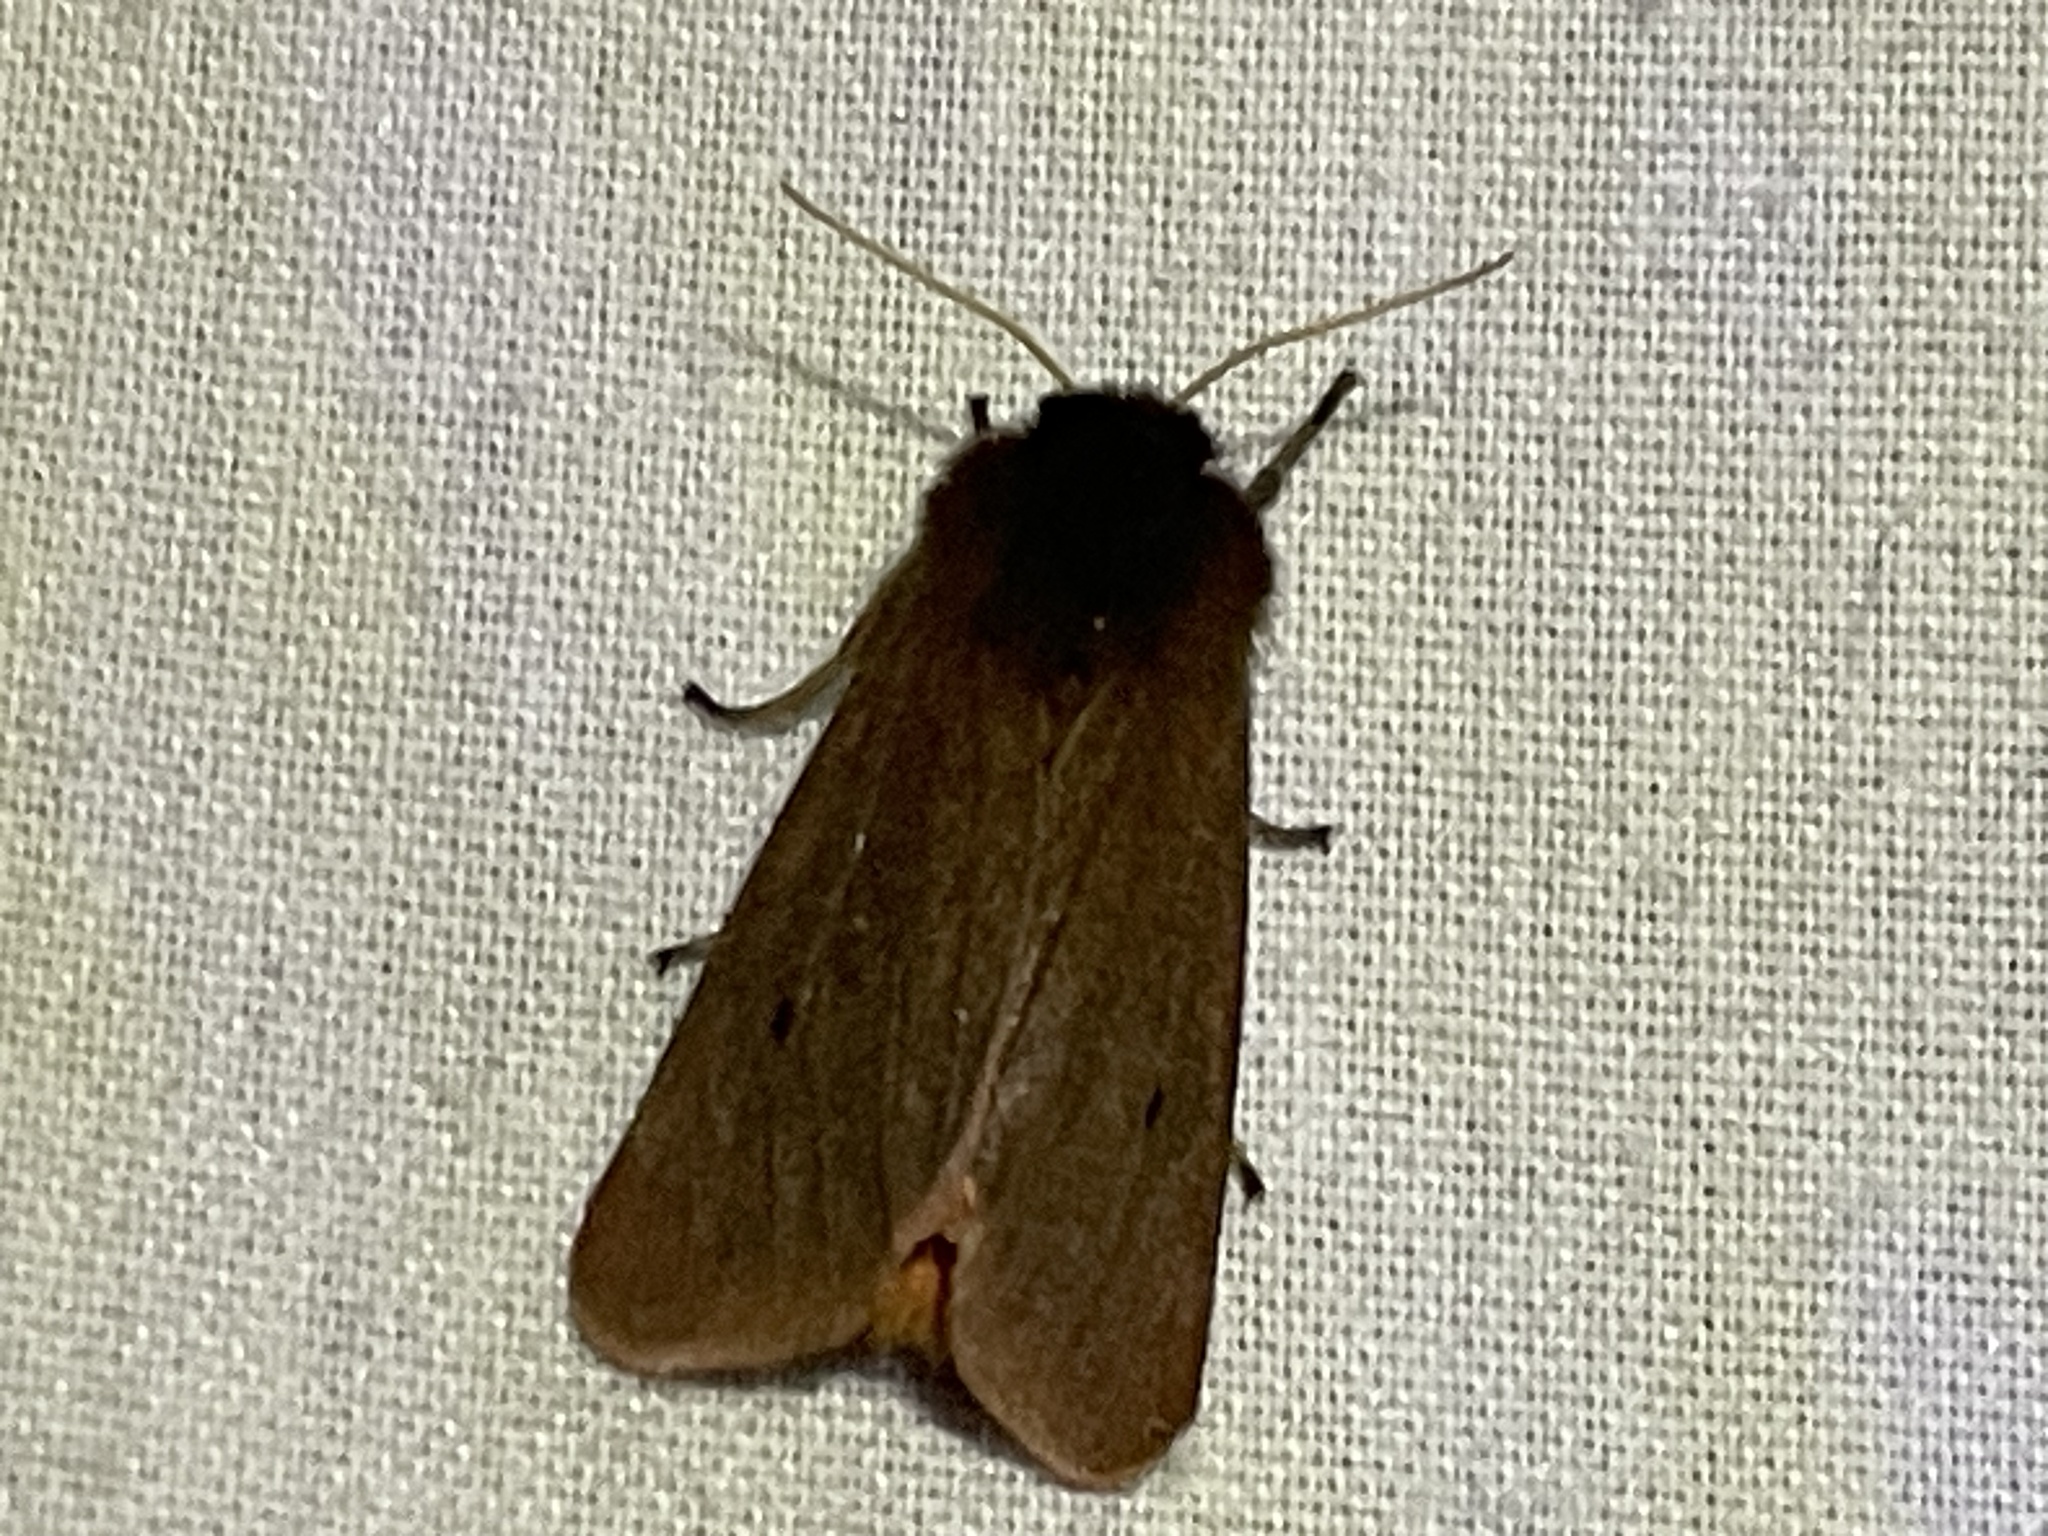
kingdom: Animalia
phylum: Arthropoda
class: Insecta
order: Lepidoptera
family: Erebidae
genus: Phragmatobia
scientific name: Phragmatobia fuliginosa
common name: Ruby tiger
